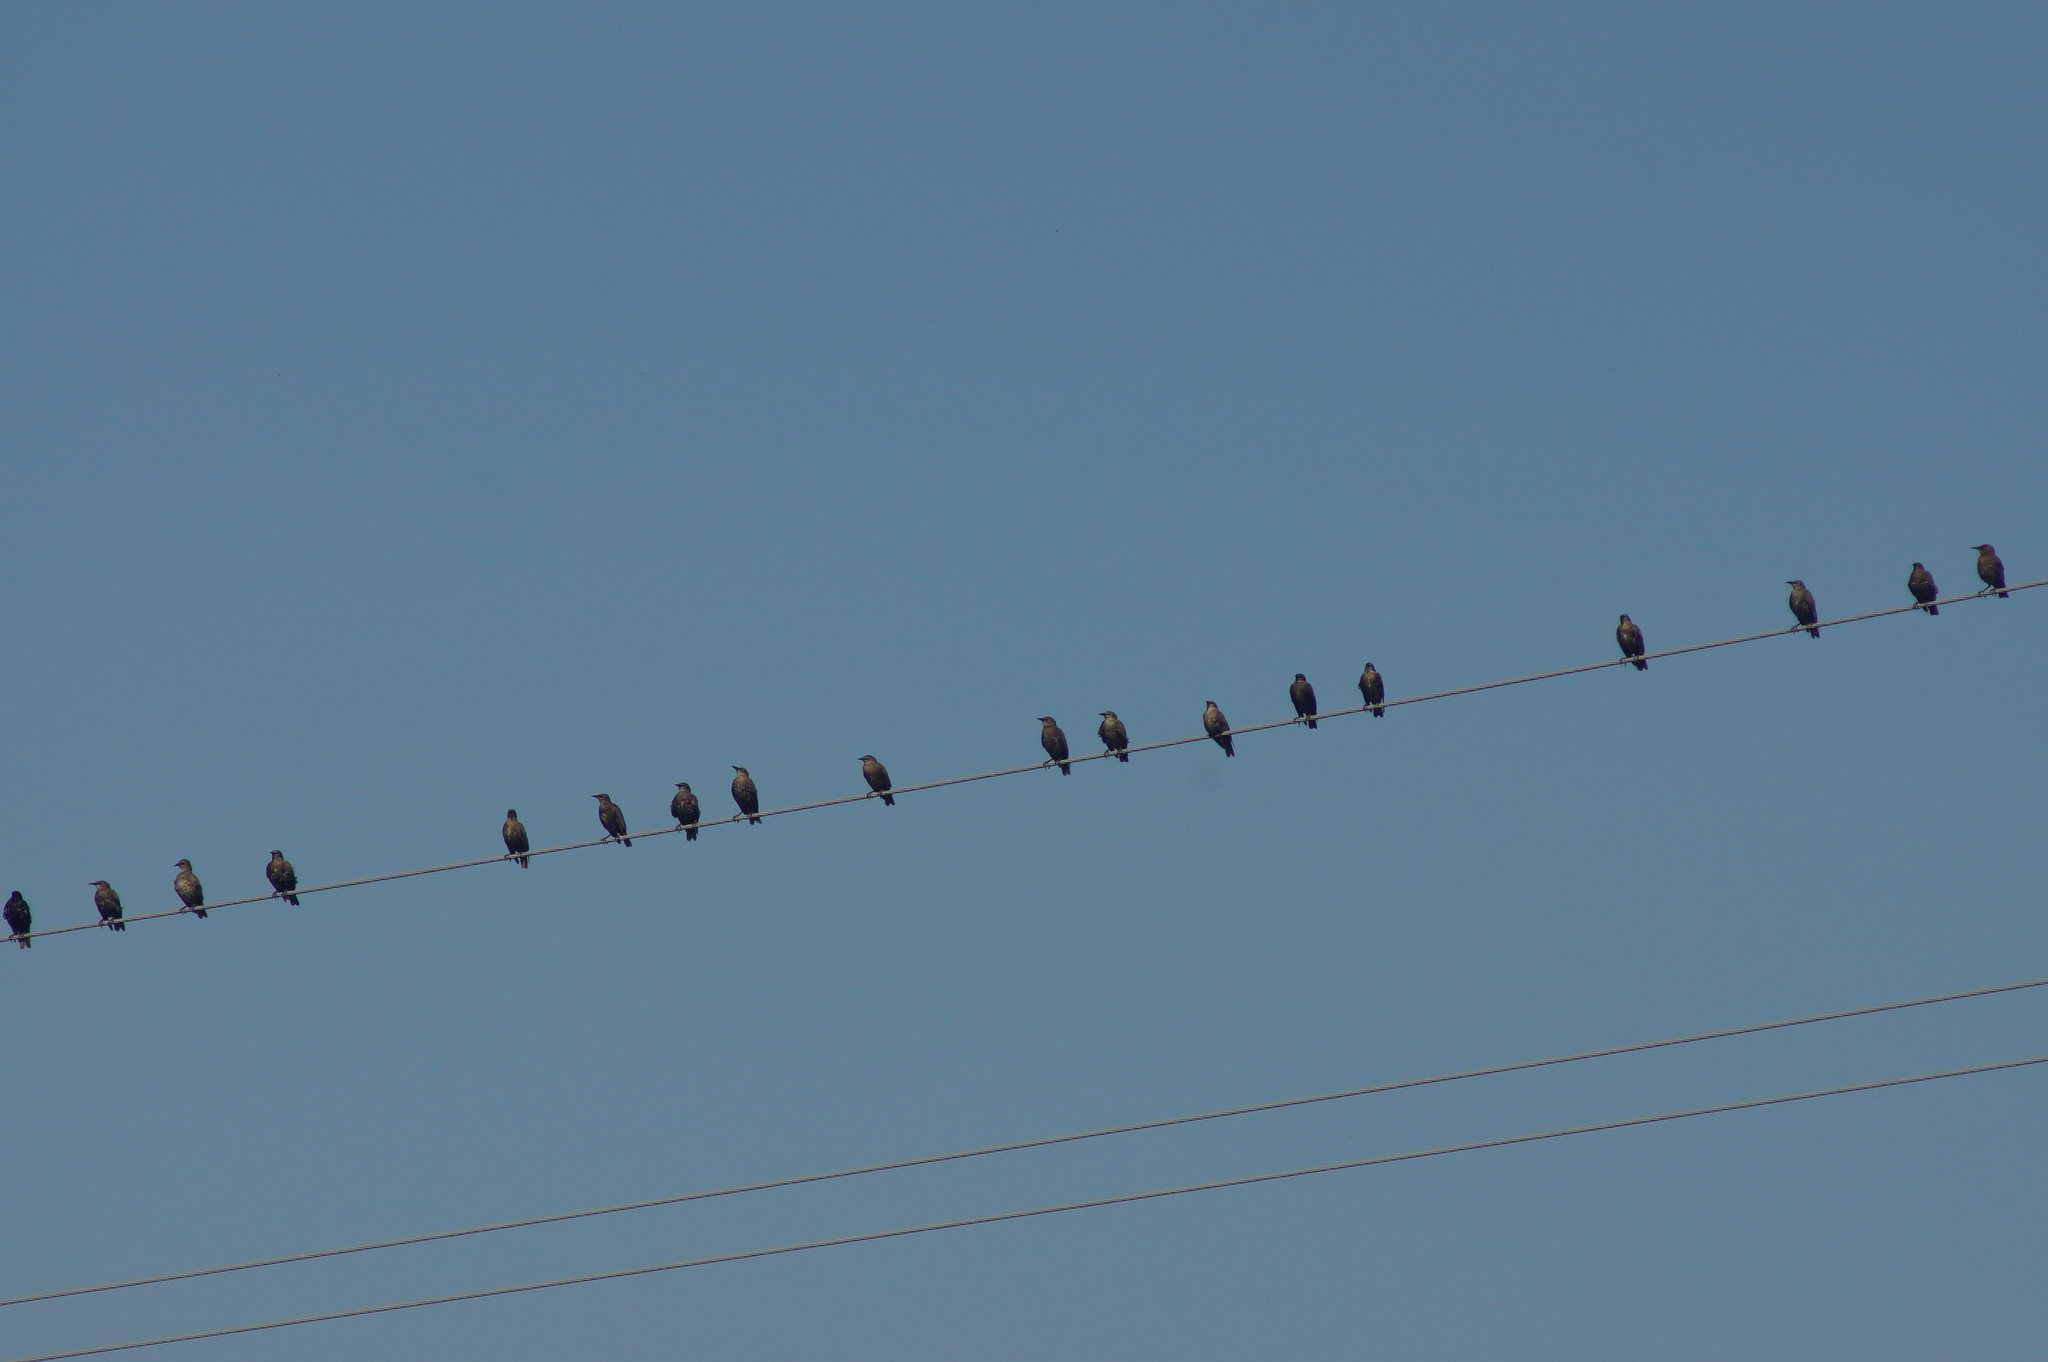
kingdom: Animalia
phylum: Chordata
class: Aves
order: Passeriformes
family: Sturnidae
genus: Sturnus
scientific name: Sturnus vulgaris
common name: Common starling
